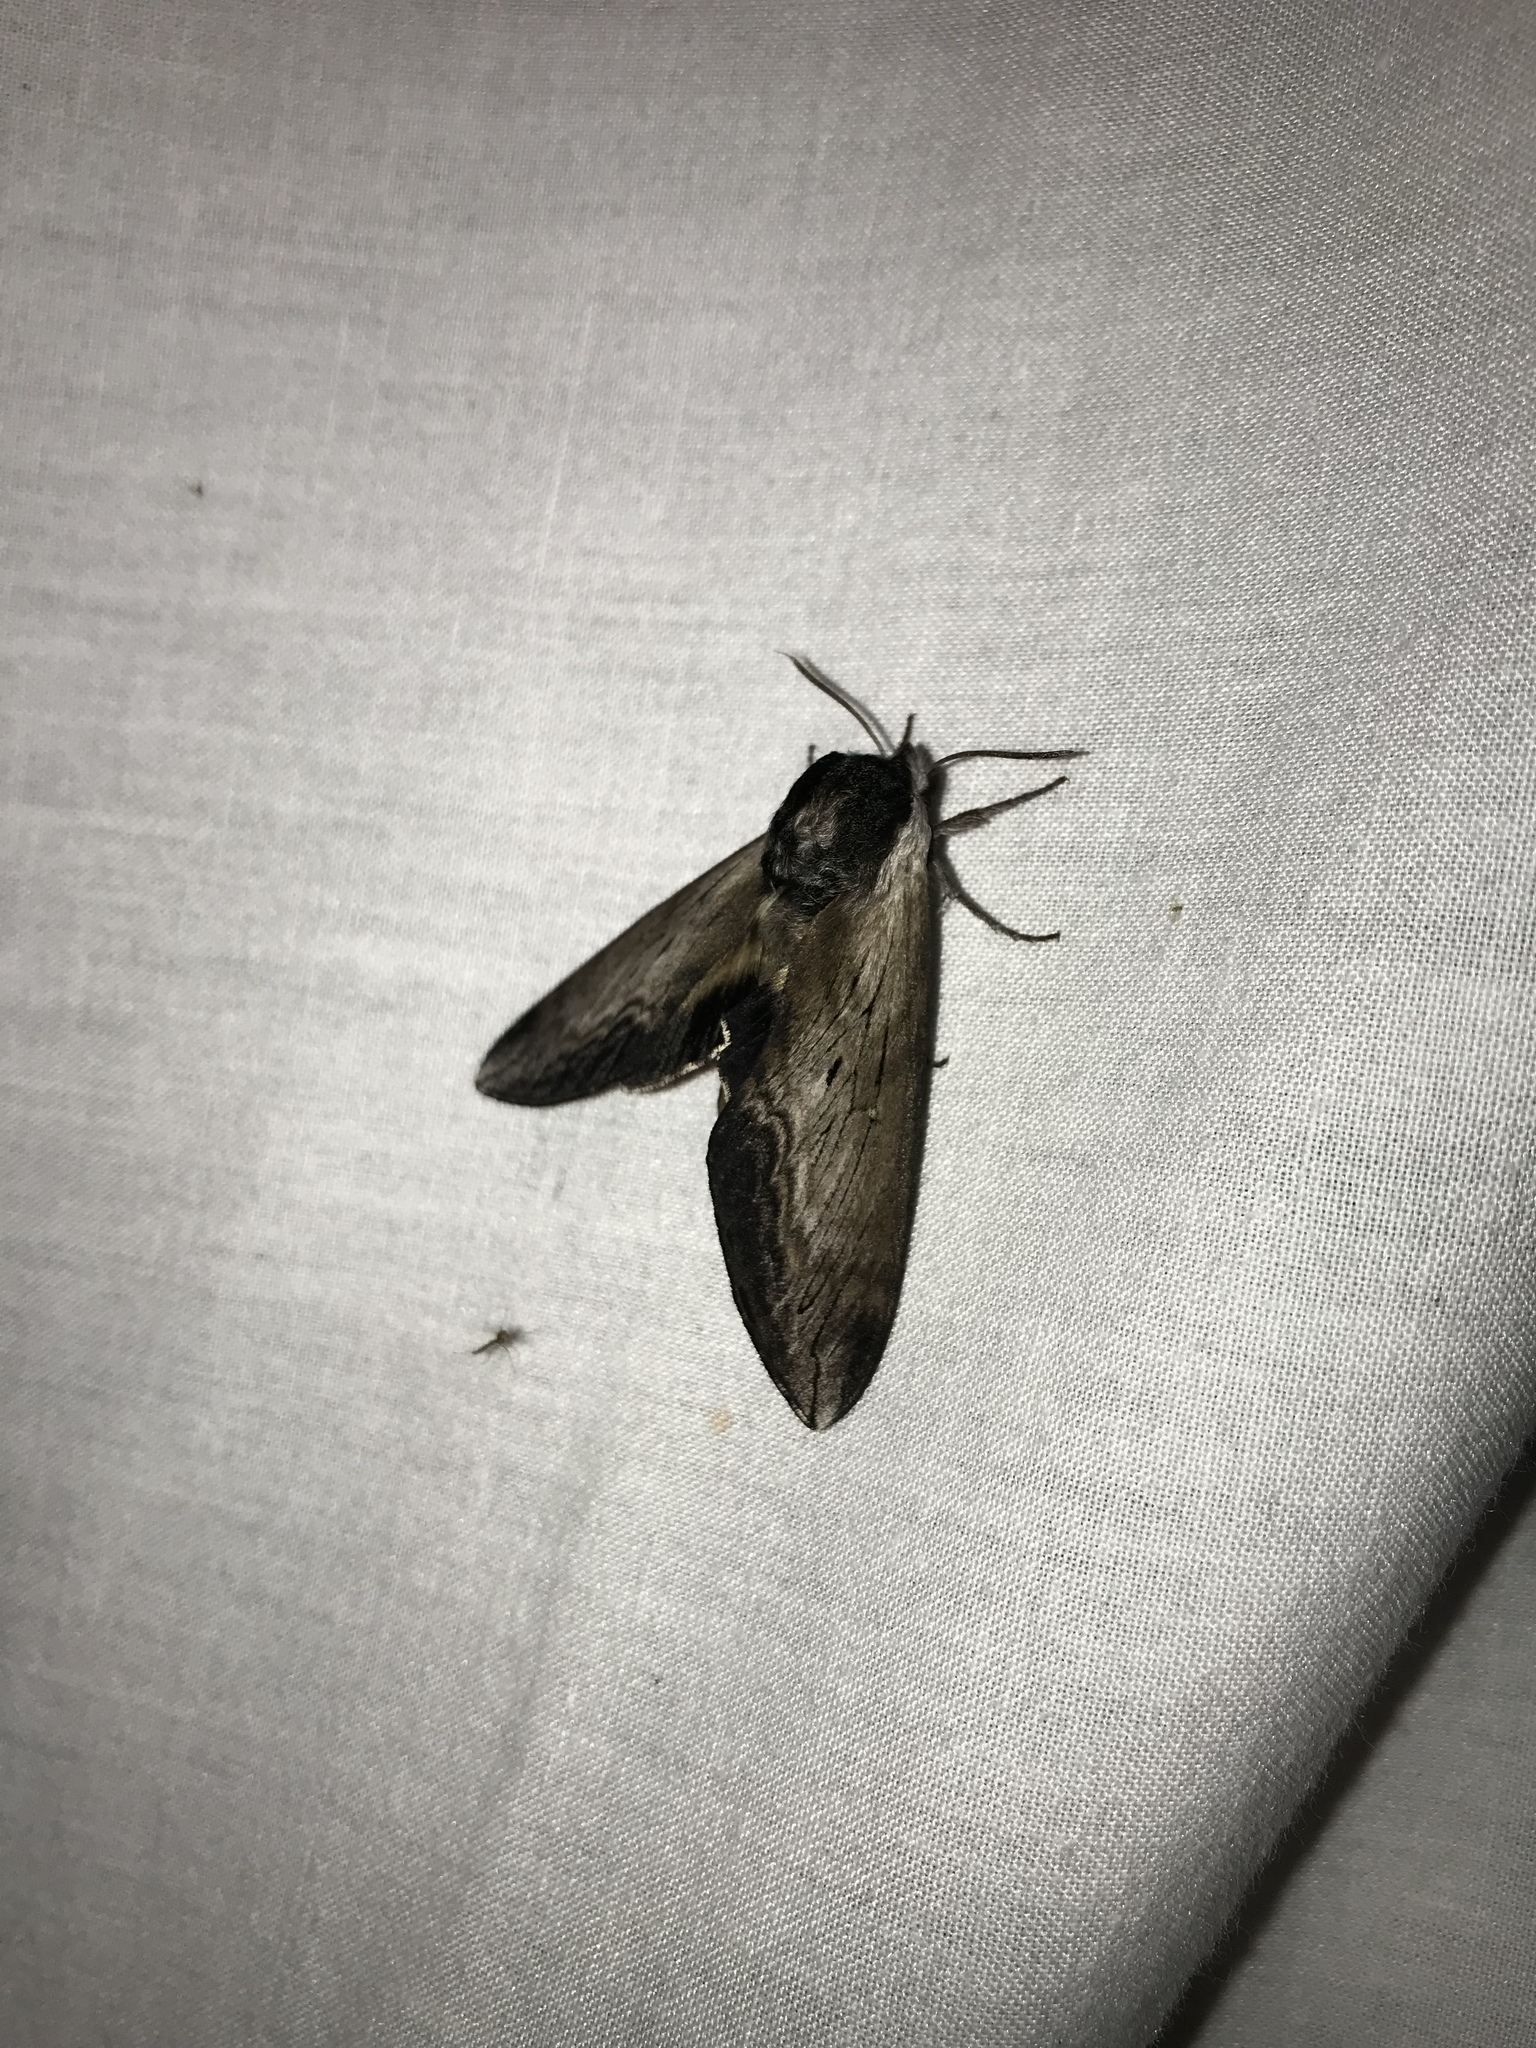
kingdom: Animalia
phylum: Arthropoda
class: Insecta
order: Lepidoptera
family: Sphingidae
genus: Sphinx
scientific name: Sphinx luscitiosa
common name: Clemen's sphinx
